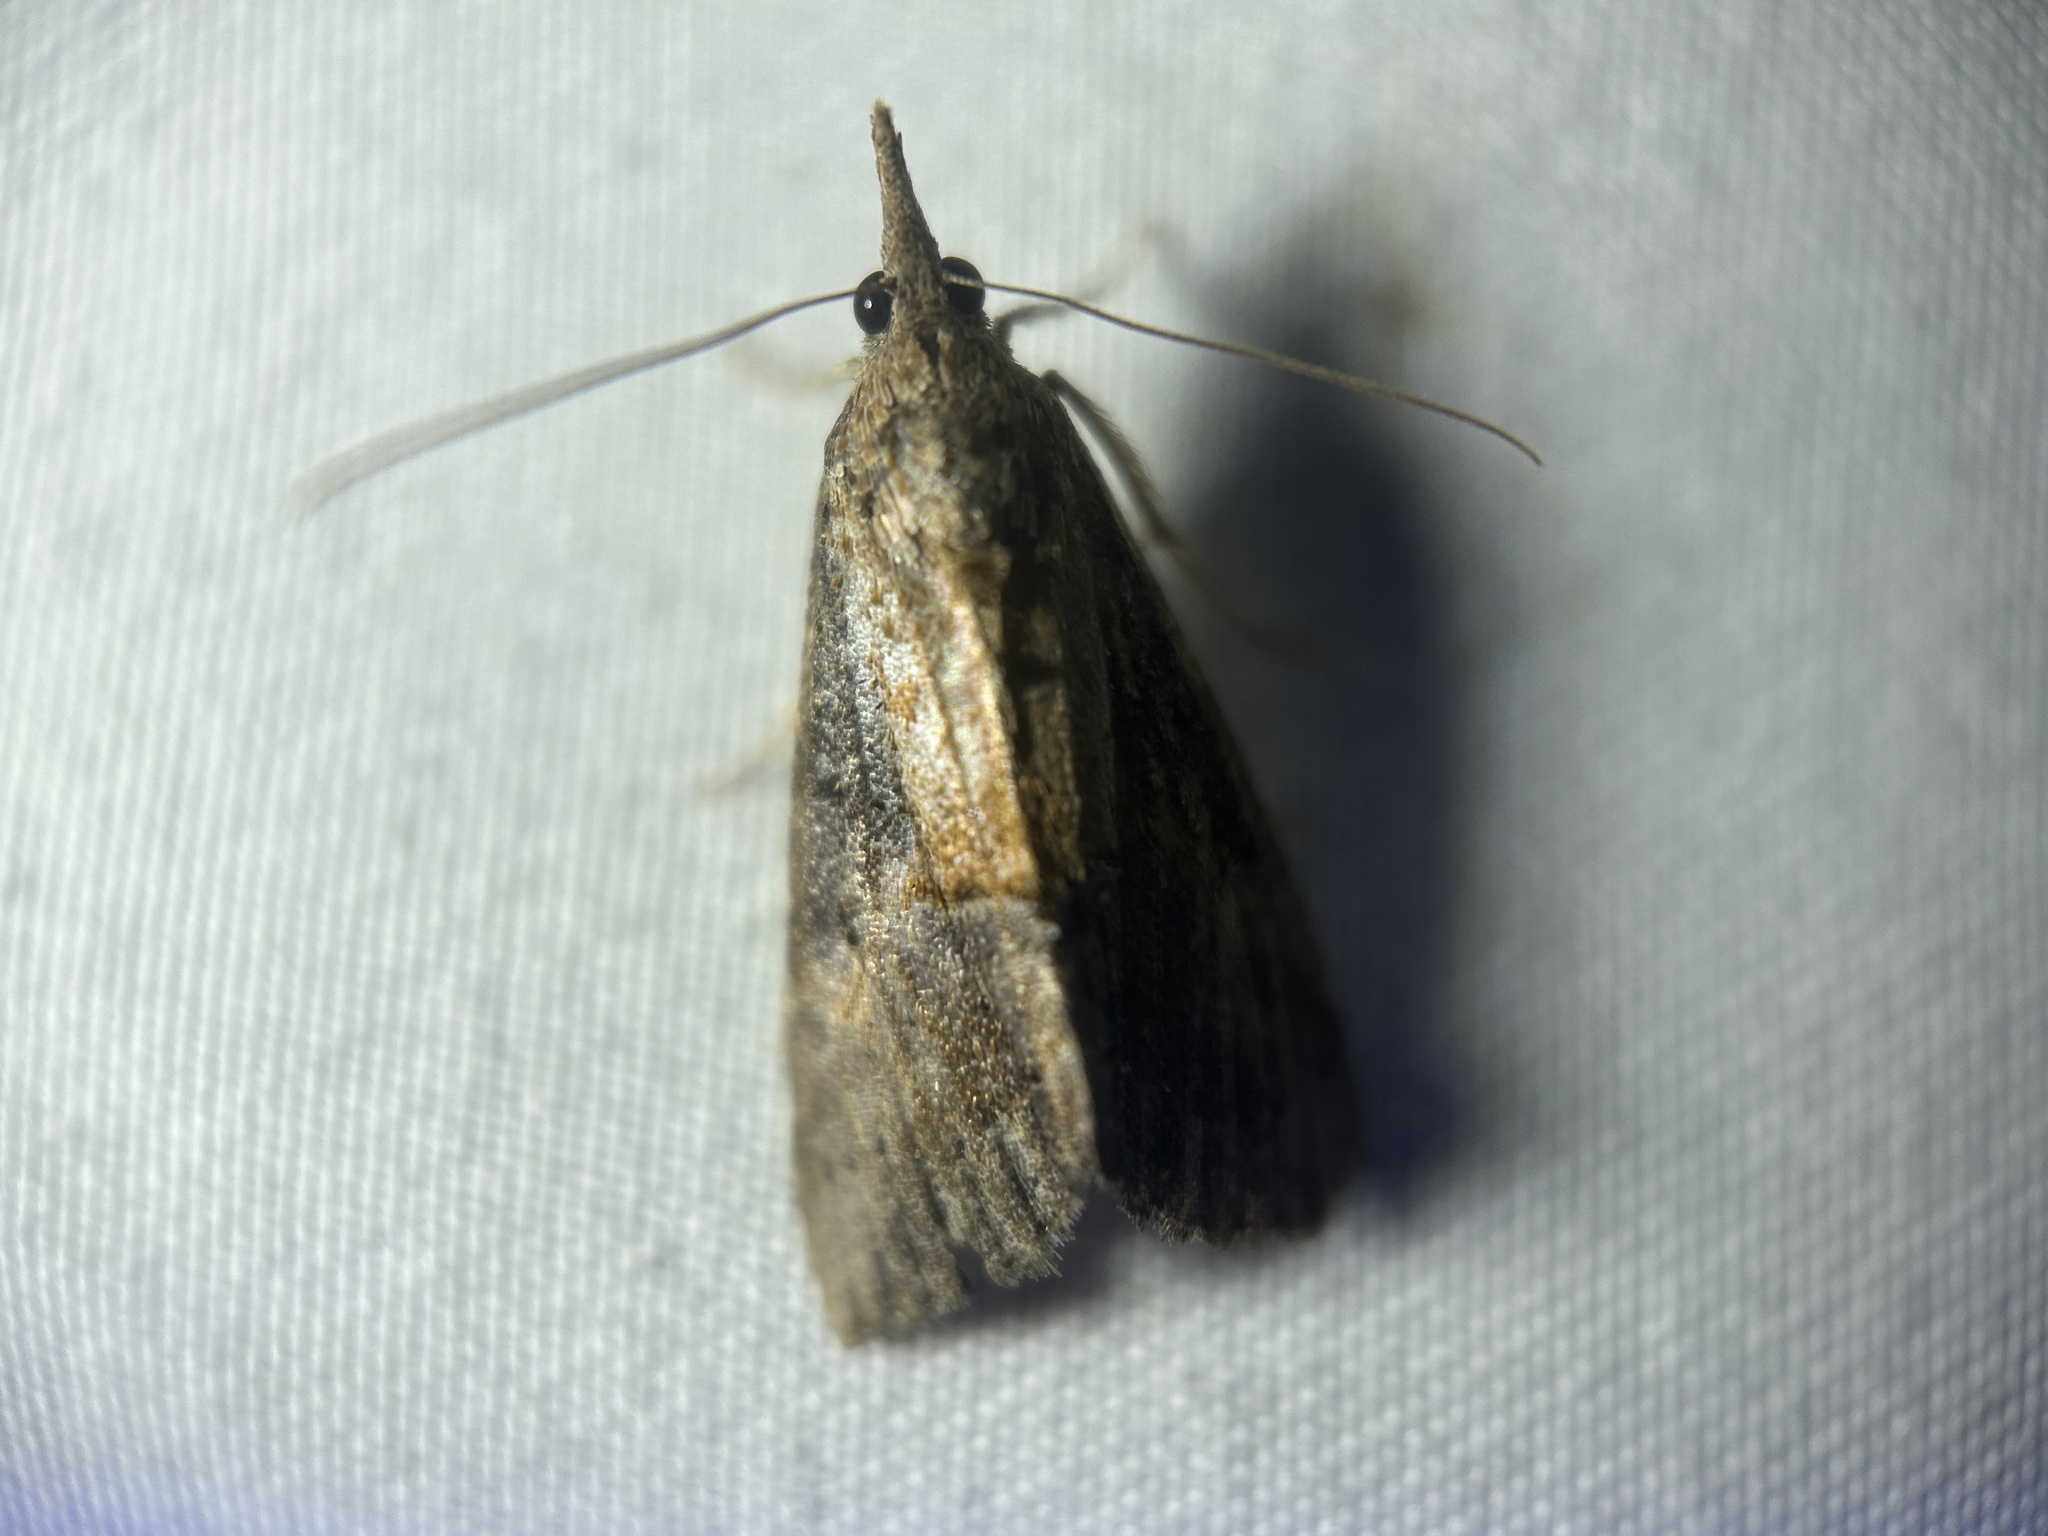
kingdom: Animalia
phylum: Arthropoda
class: Insecta
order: Lepidoptera
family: Erebidae
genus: Hypena
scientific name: Hypena scabra
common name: Green cloverworm
